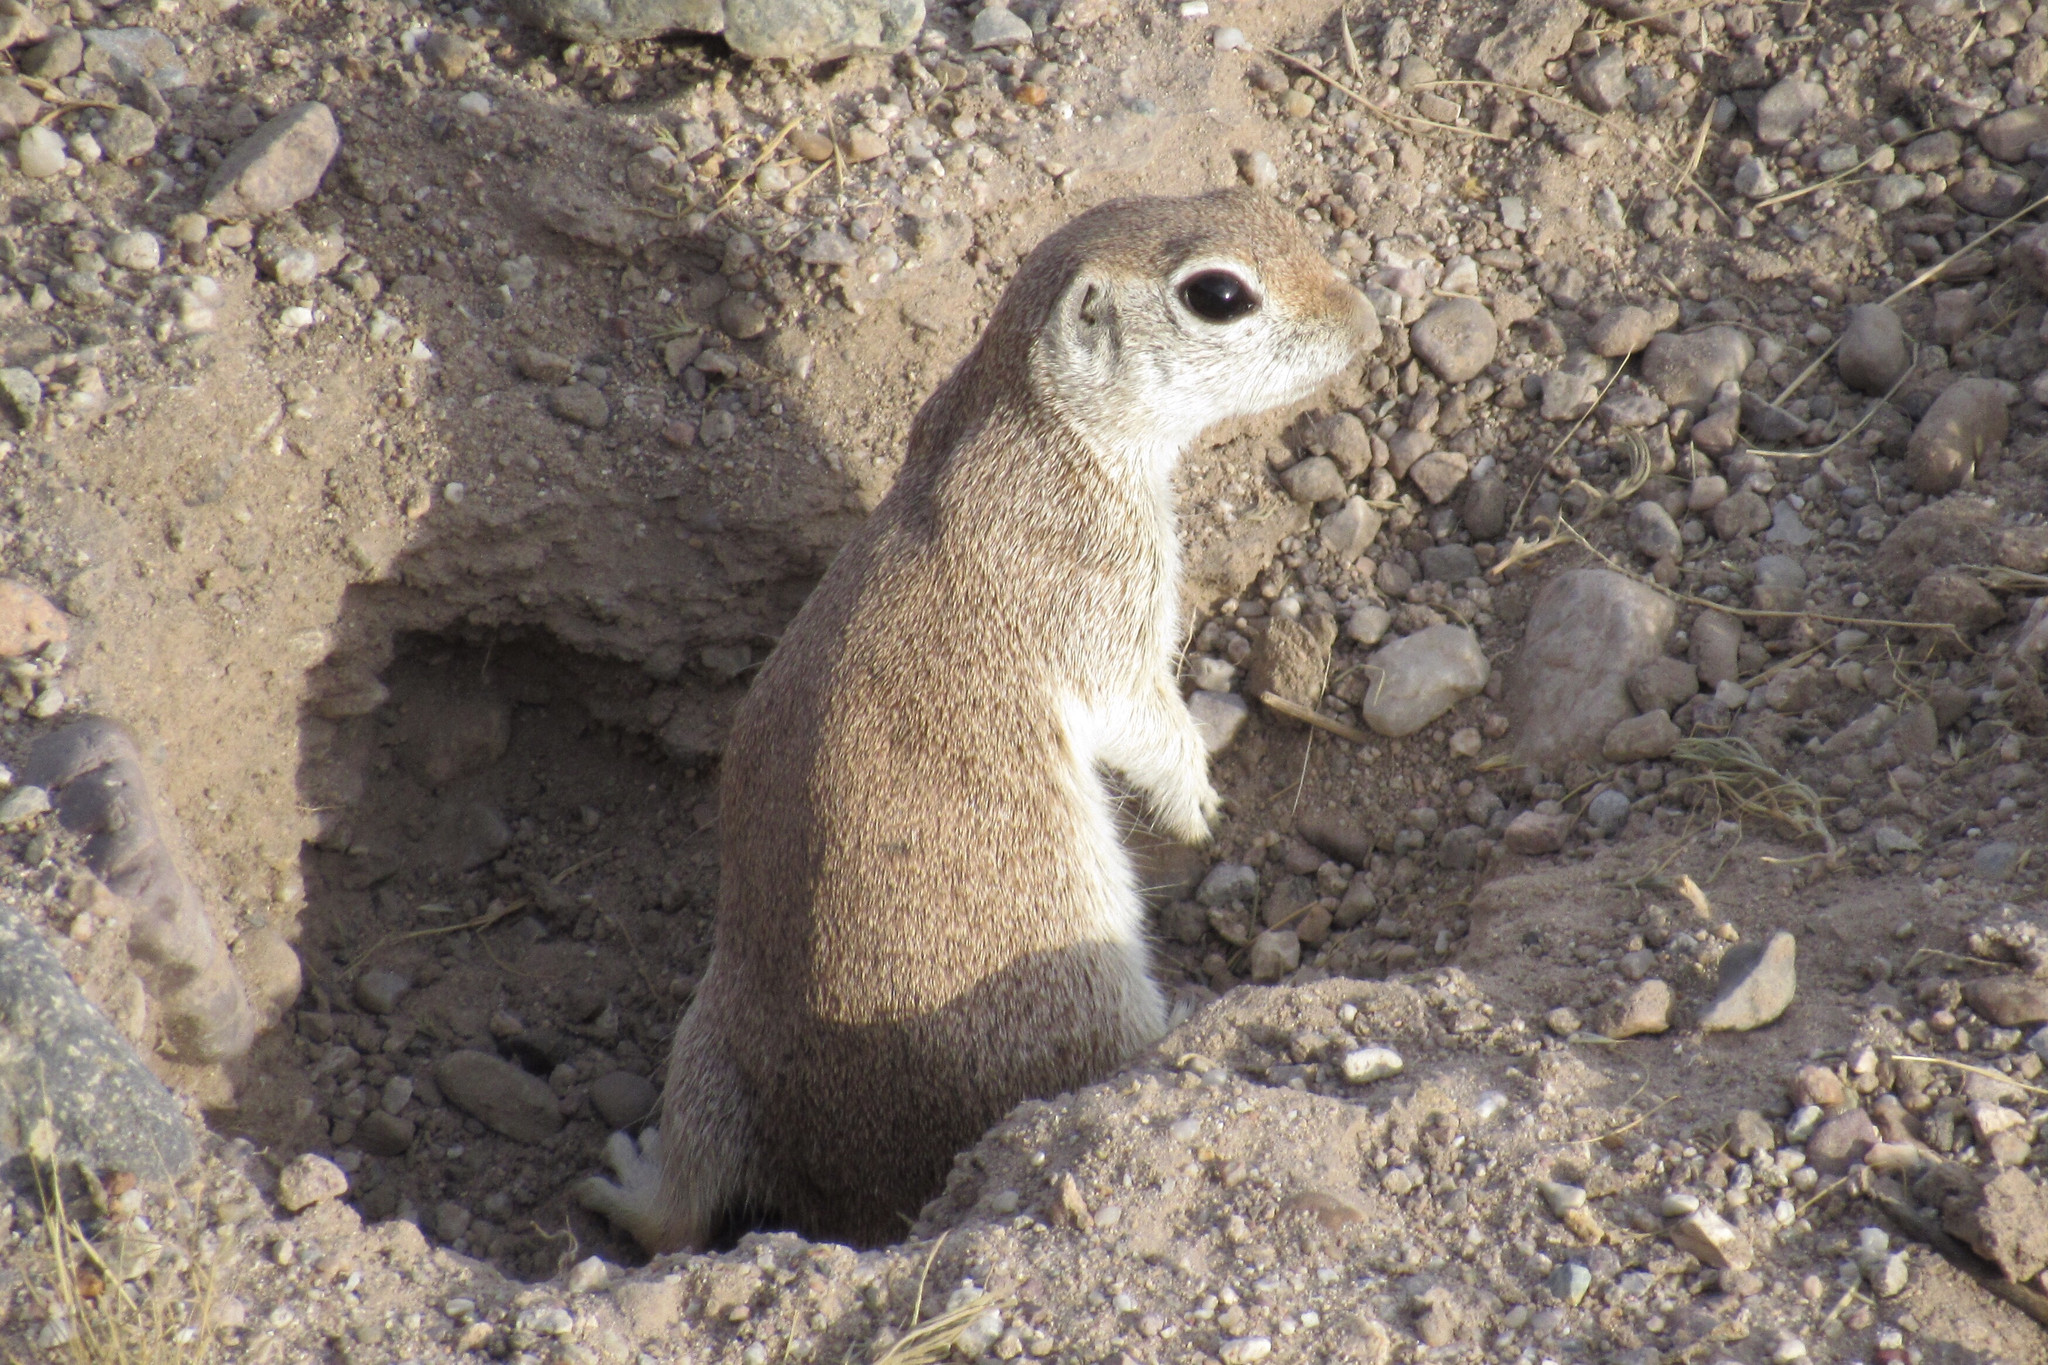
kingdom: Animalia
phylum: Chordata
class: Mammalia
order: Rodentia
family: Sciuridae
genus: Xerospermophilus
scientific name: Xerospermophilus tereticaudus
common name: Round-tailed ground squirrel
